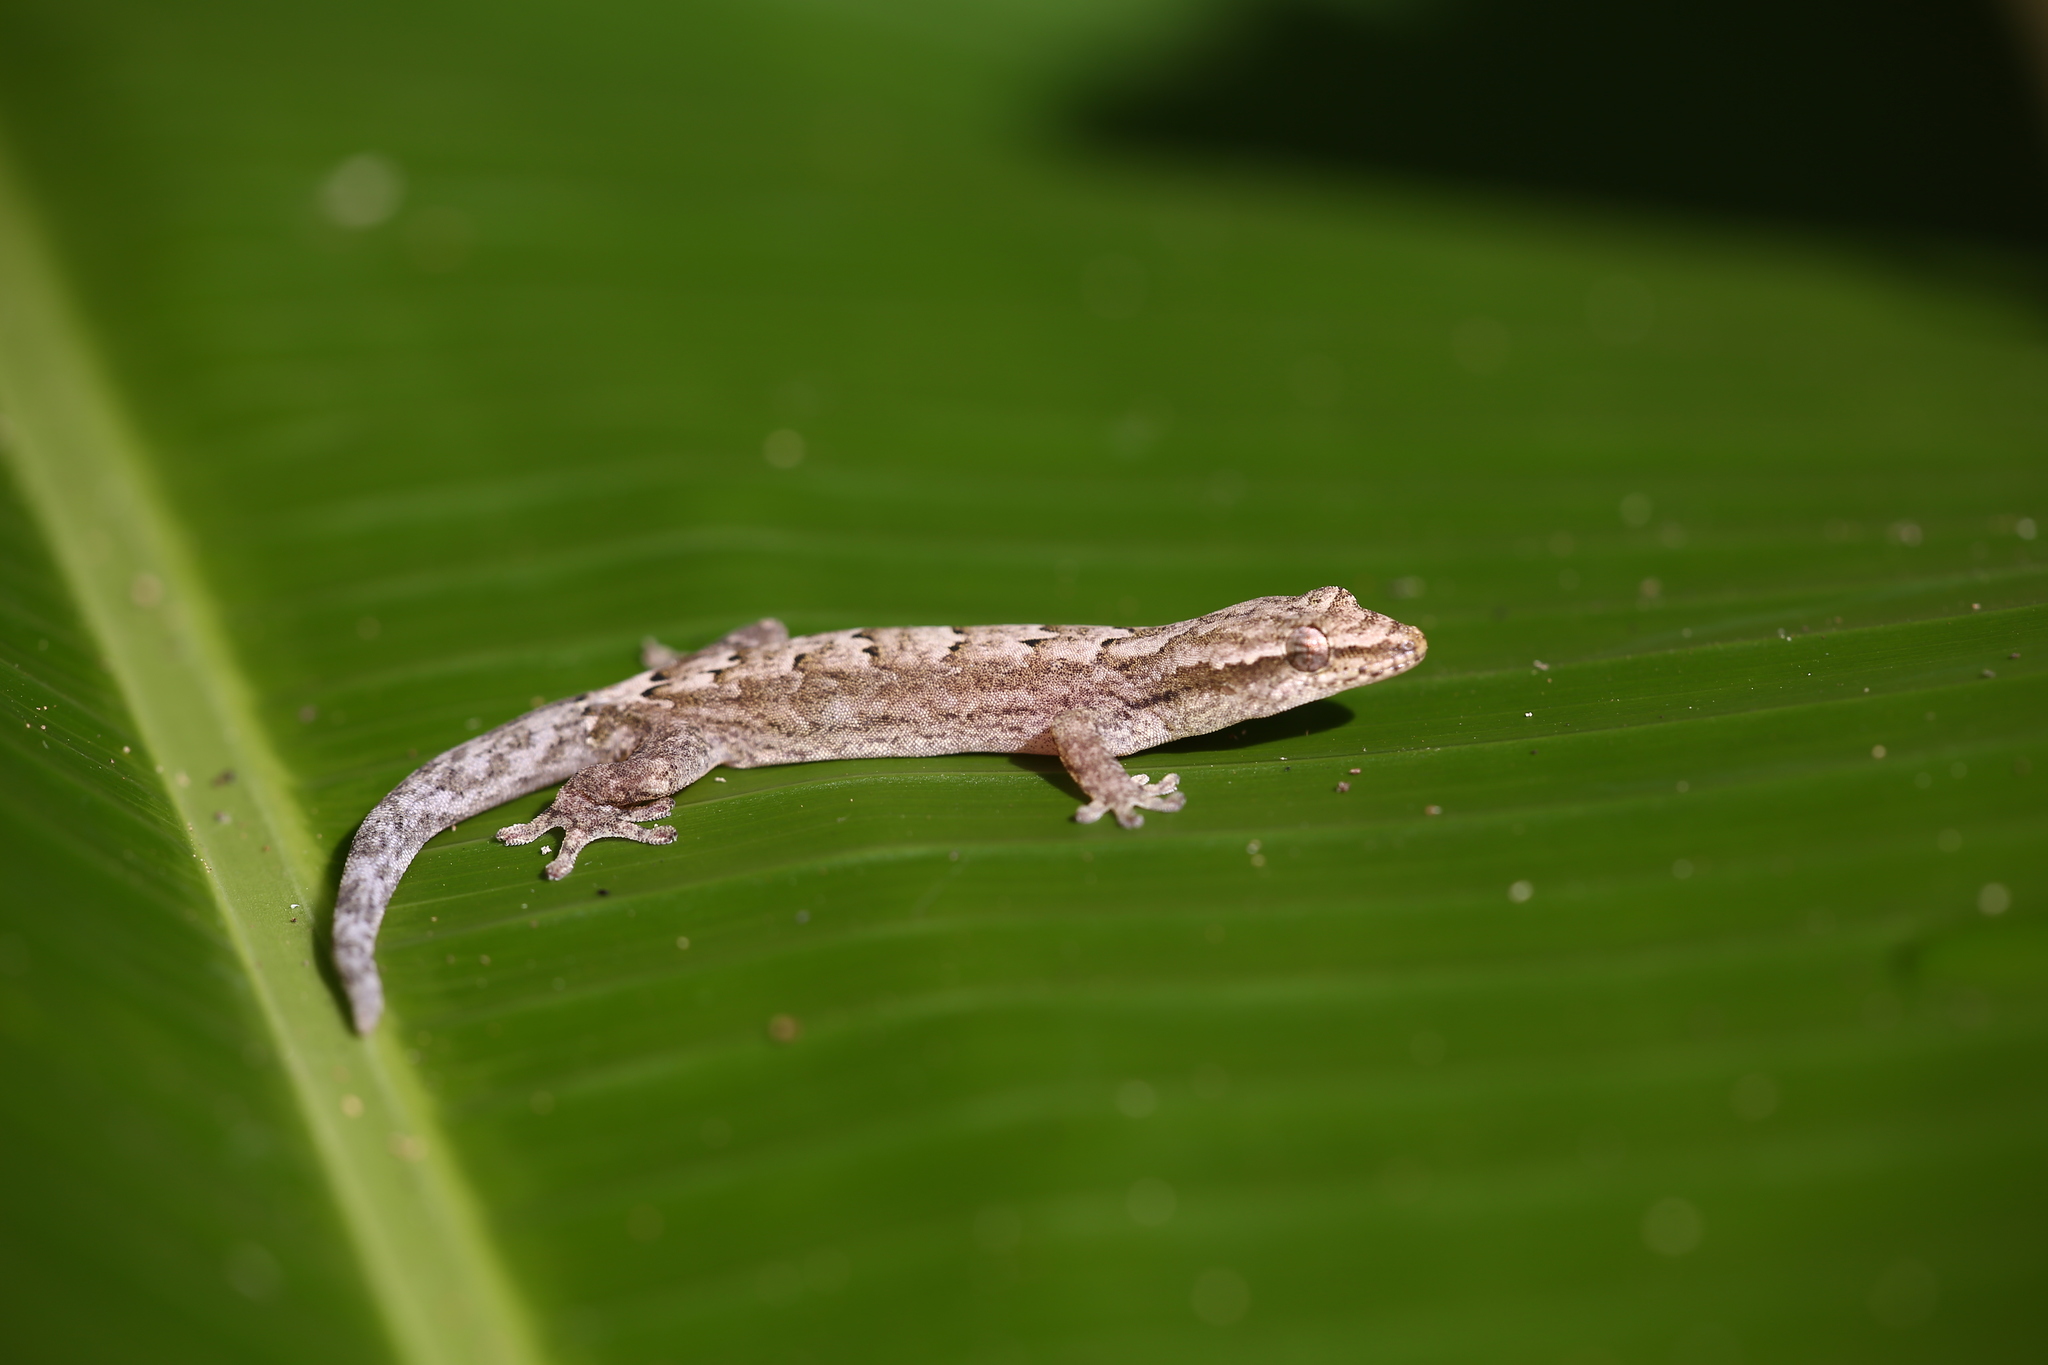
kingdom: Animalia
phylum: Chordata
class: Squamata
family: Gekkonidae
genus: Lepidodactylus
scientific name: Lepidodactylus lugubris
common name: Mourning gecko
